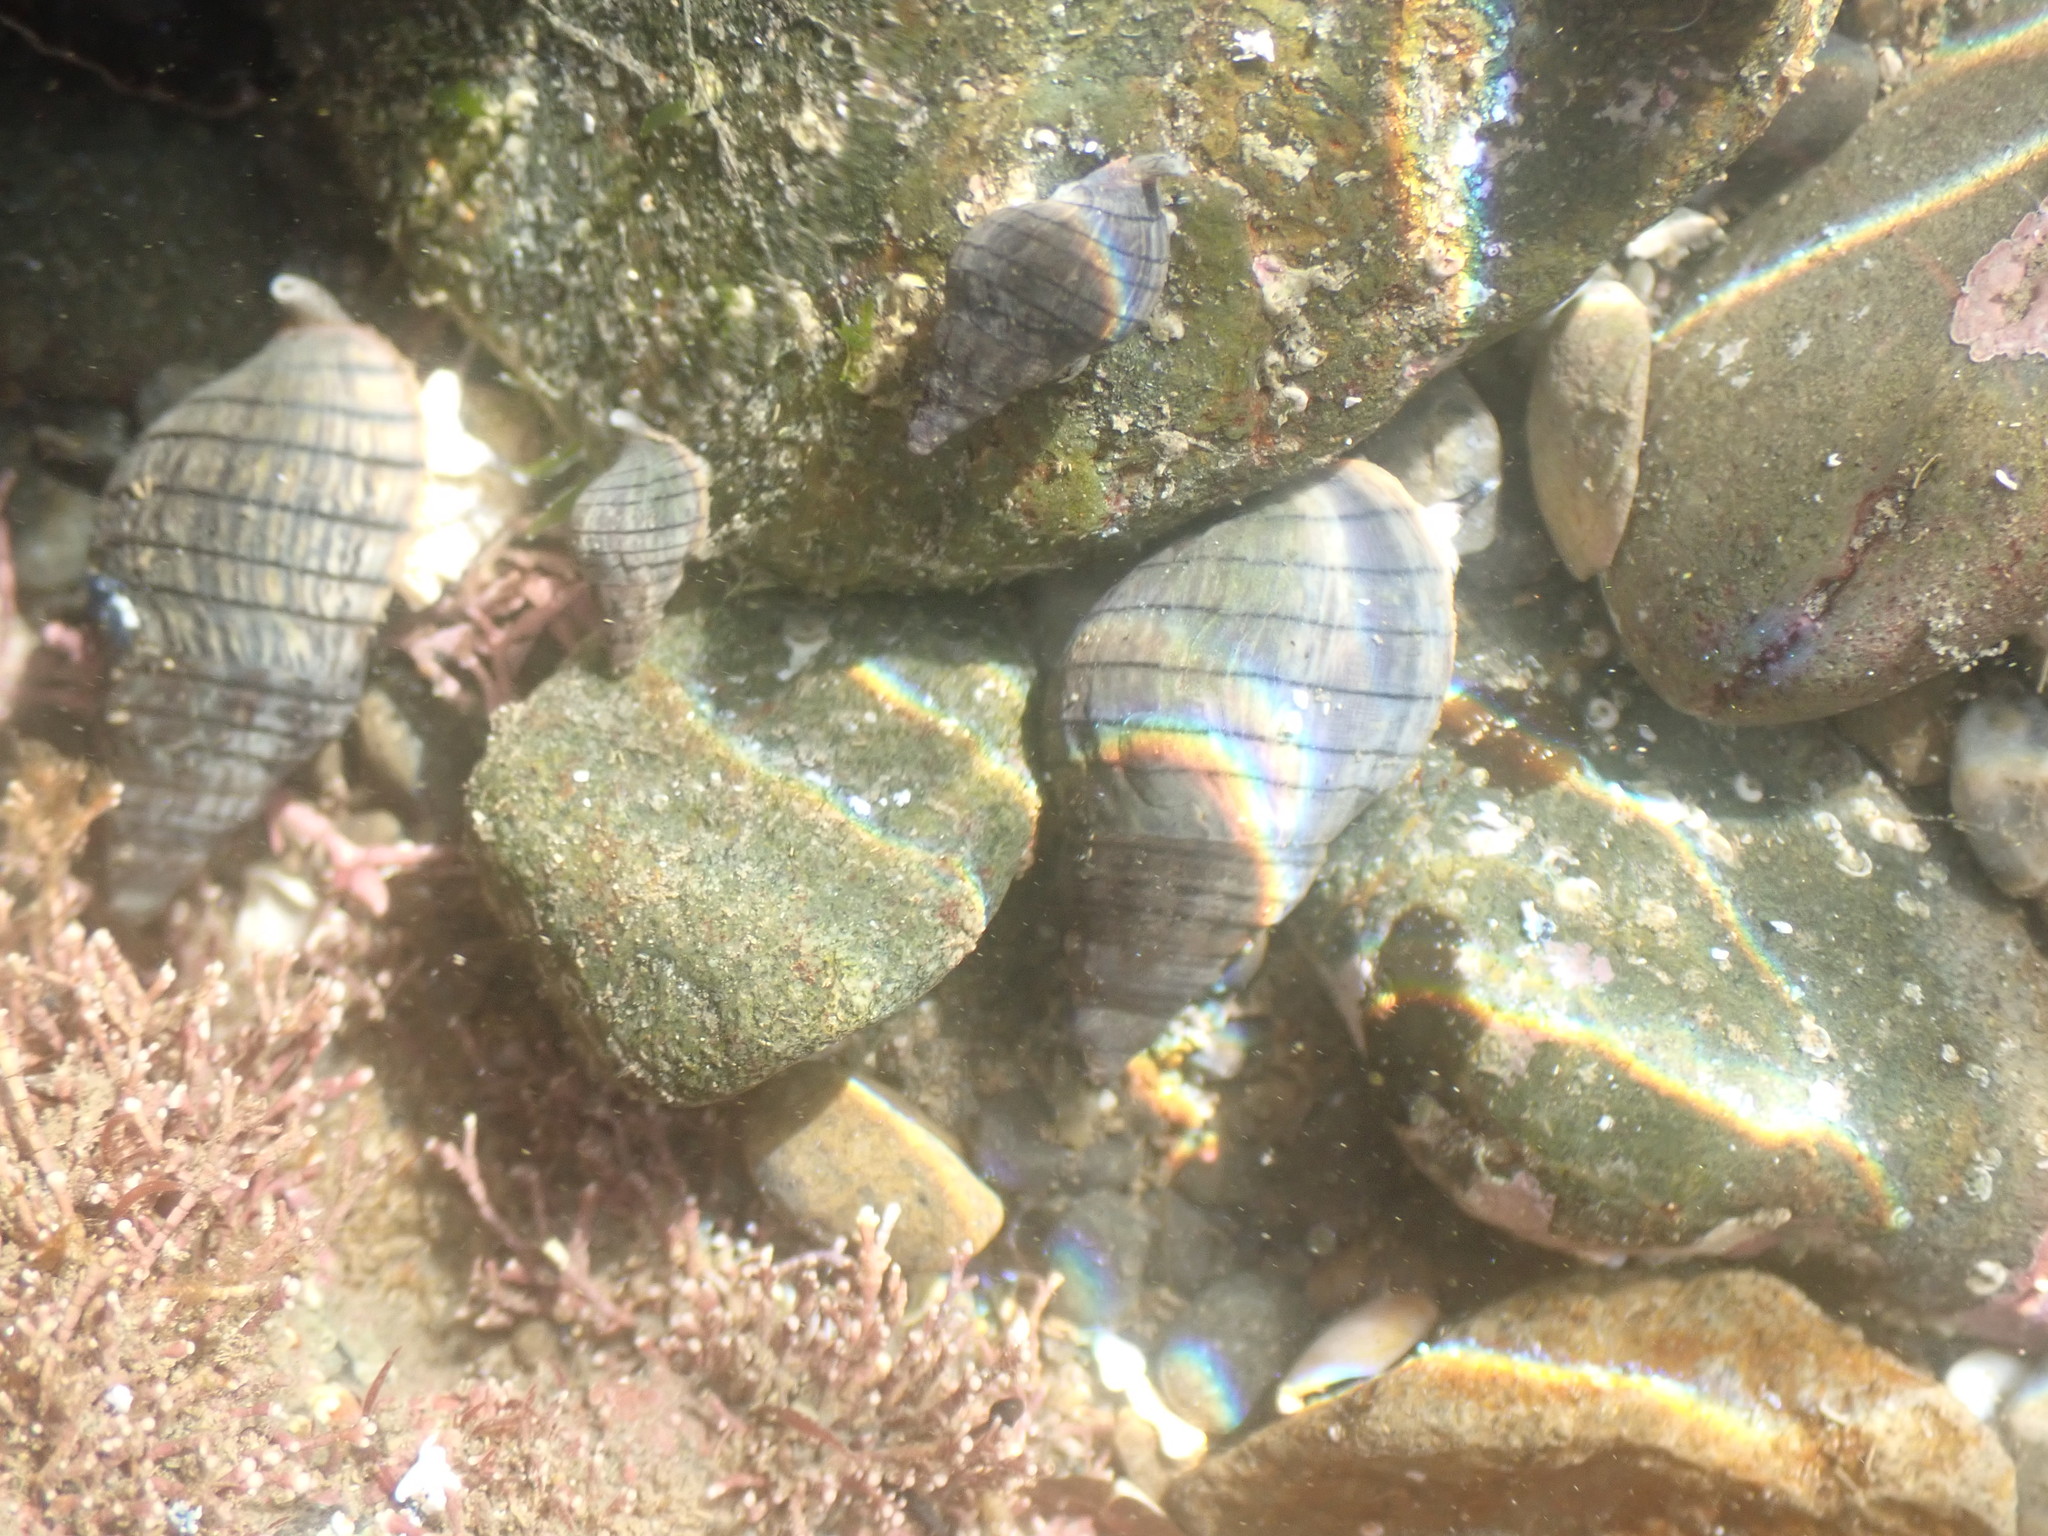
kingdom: Animalia
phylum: Mollusca
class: Gastropoda
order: Neogastropoda
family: Cominellidae
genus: Cominella
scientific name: Cominella virgata
